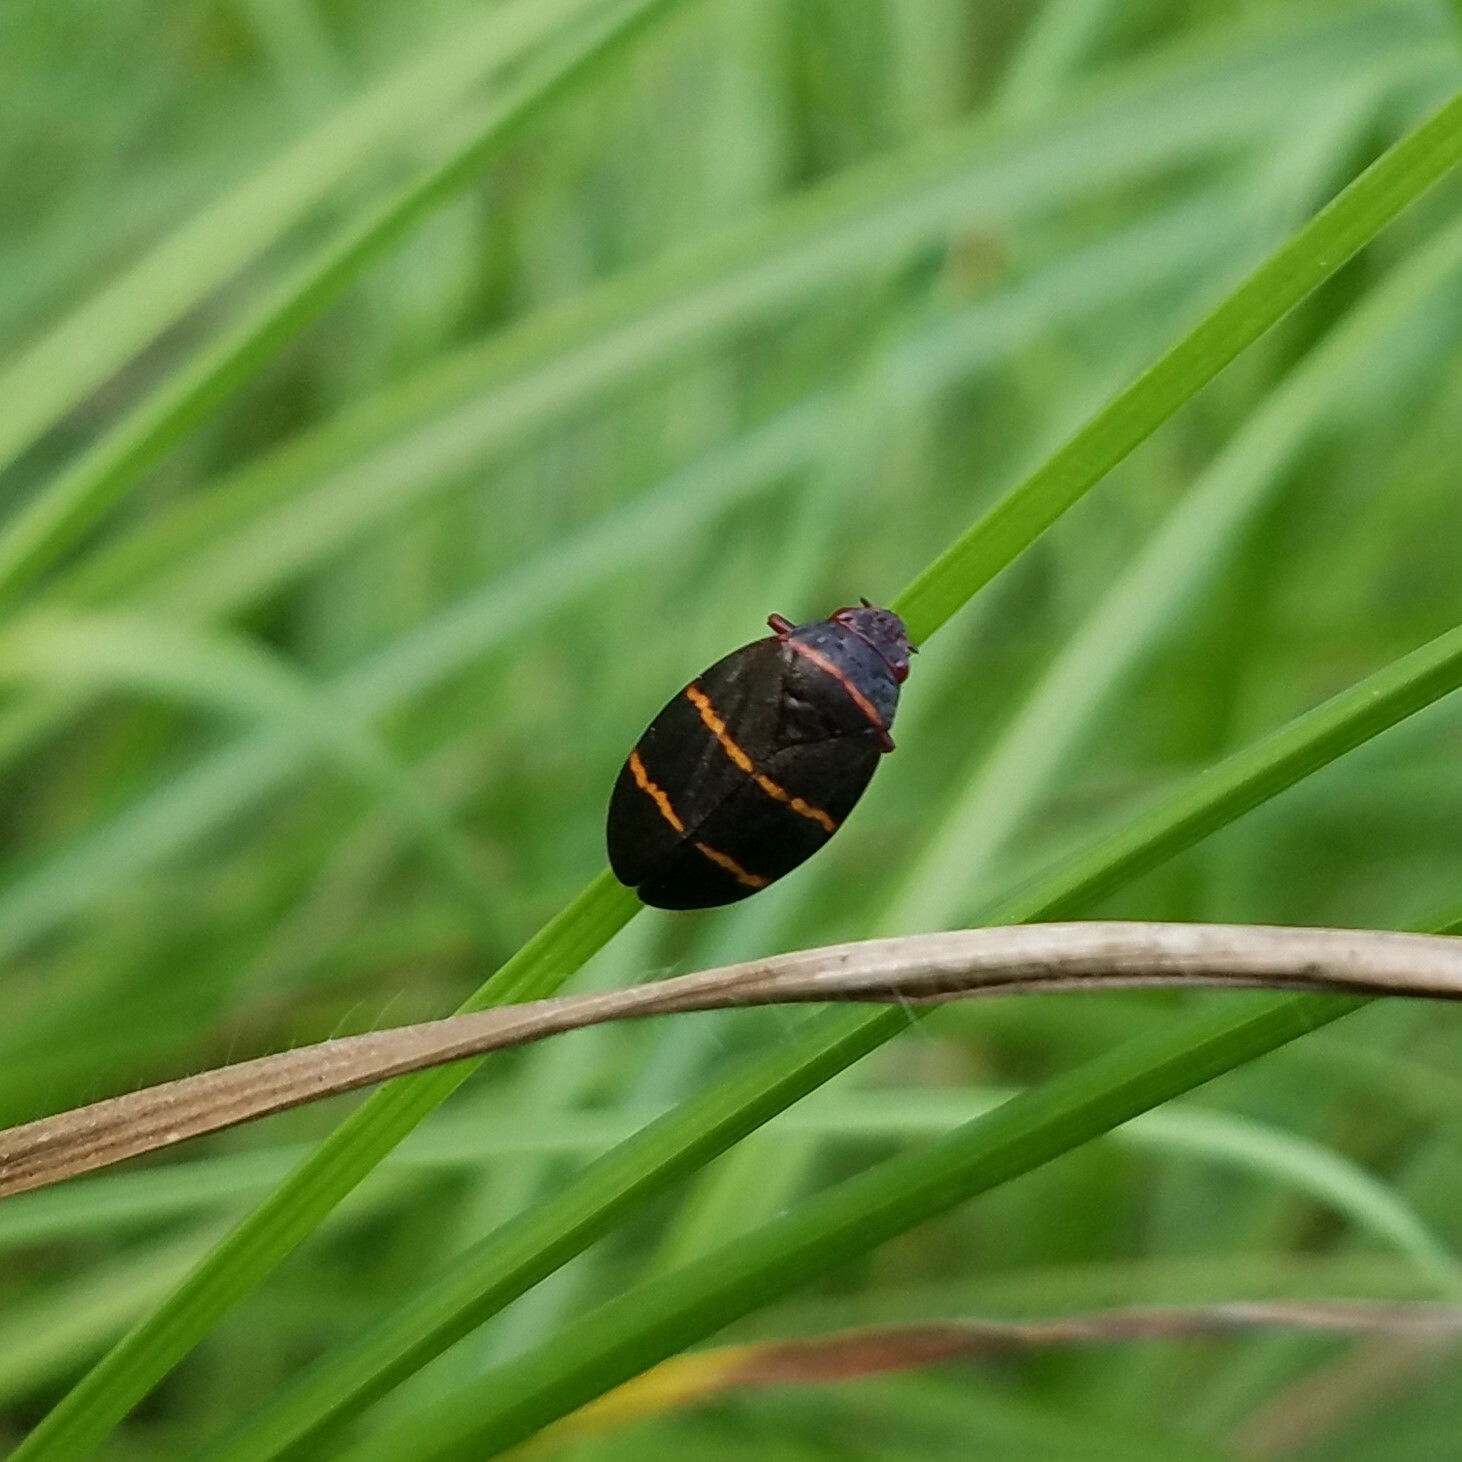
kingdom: Animalia
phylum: Arthropoda
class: Insecta
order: Hemiptera
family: Cercopidae
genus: Prosapia
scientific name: Prosapia bicincta
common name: Twolined spittlebug
